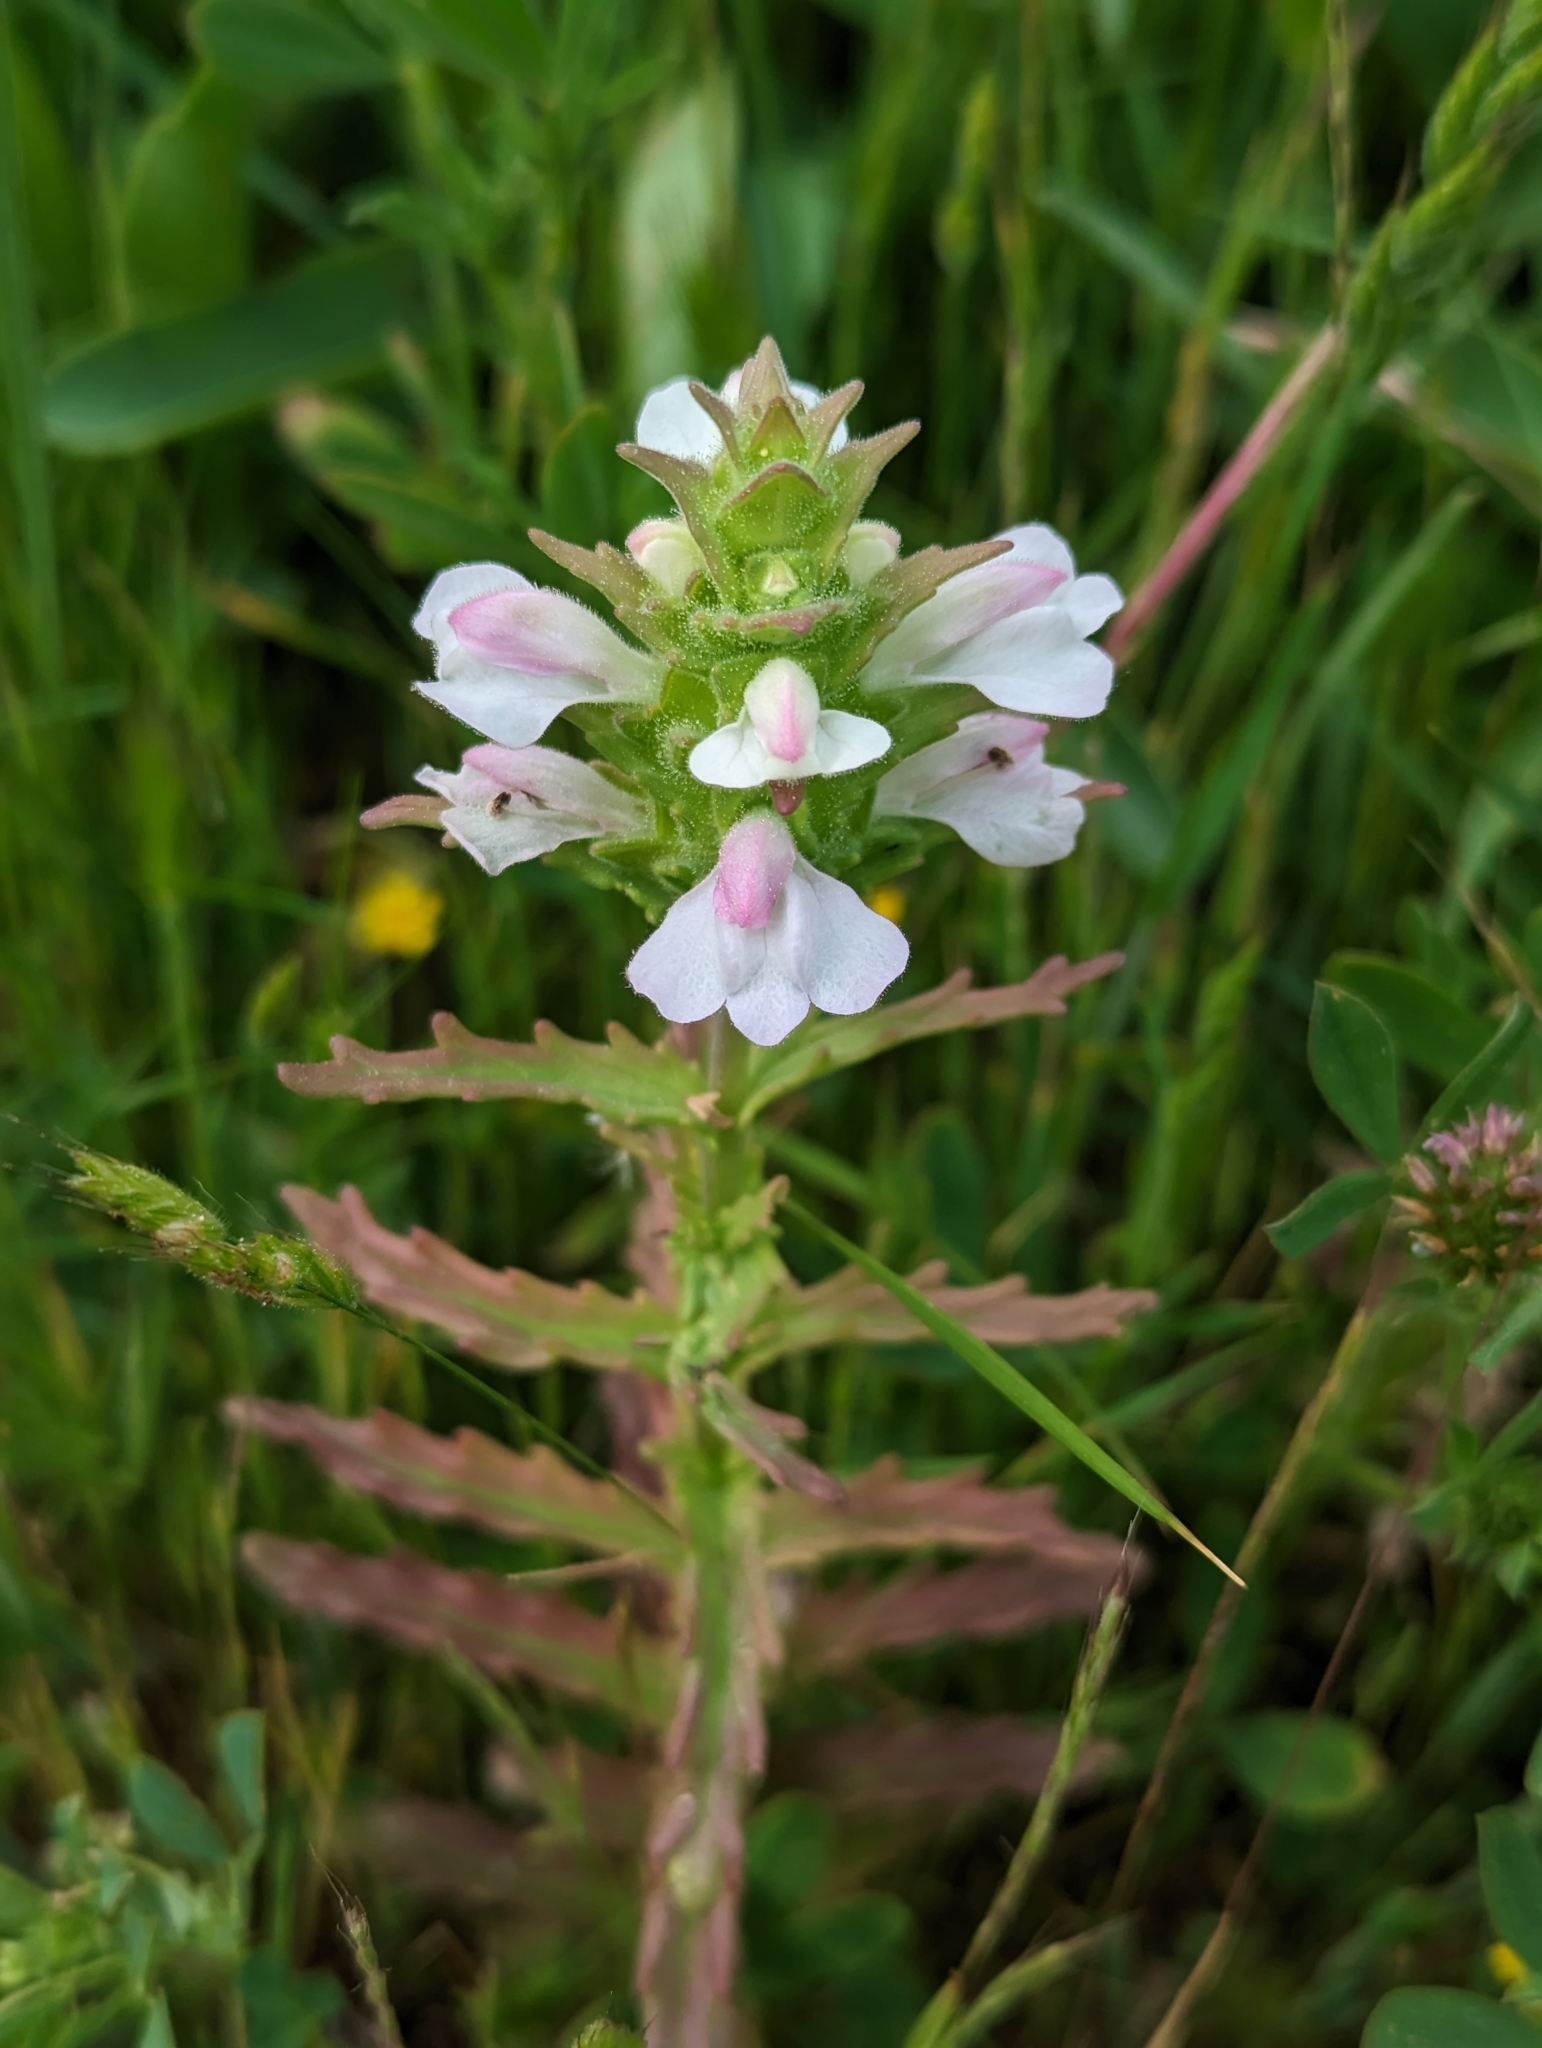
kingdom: Plantae
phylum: Tracheophyta
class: Magnoliopsida
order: Lamiales
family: Orobanchaceae
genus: Bellardia
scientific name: Bellardia trixago
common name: Mediterranean lineseed
